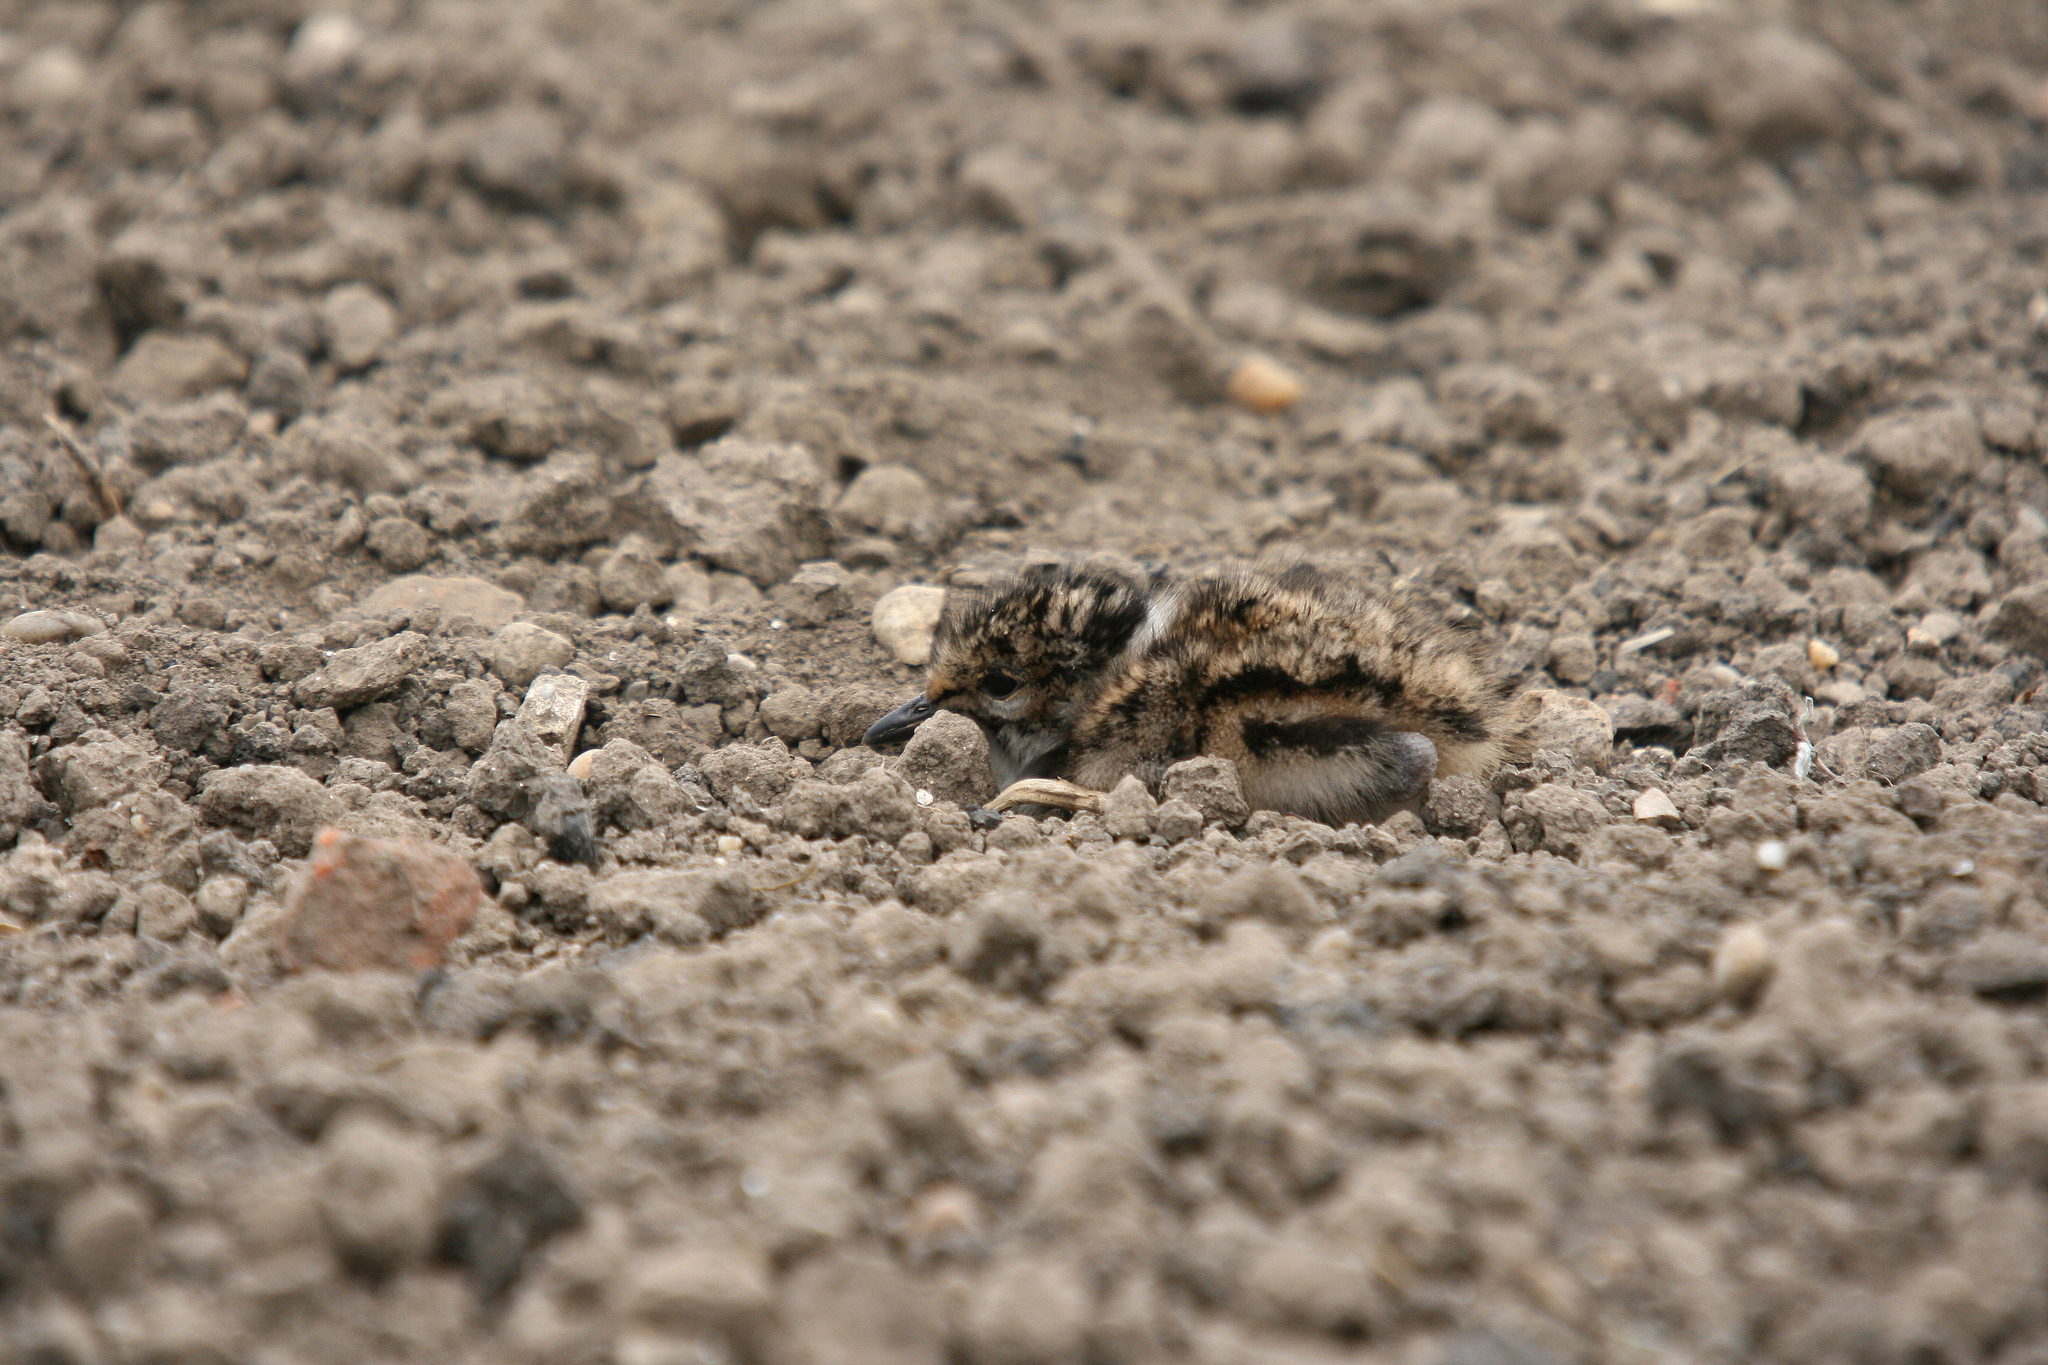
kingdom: Animalia
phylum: Chordata
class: Aves
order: Charadriiformes
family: Charadriidae
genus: Vanellus
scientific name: Vanellus vanellus
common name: Northern lapwing
